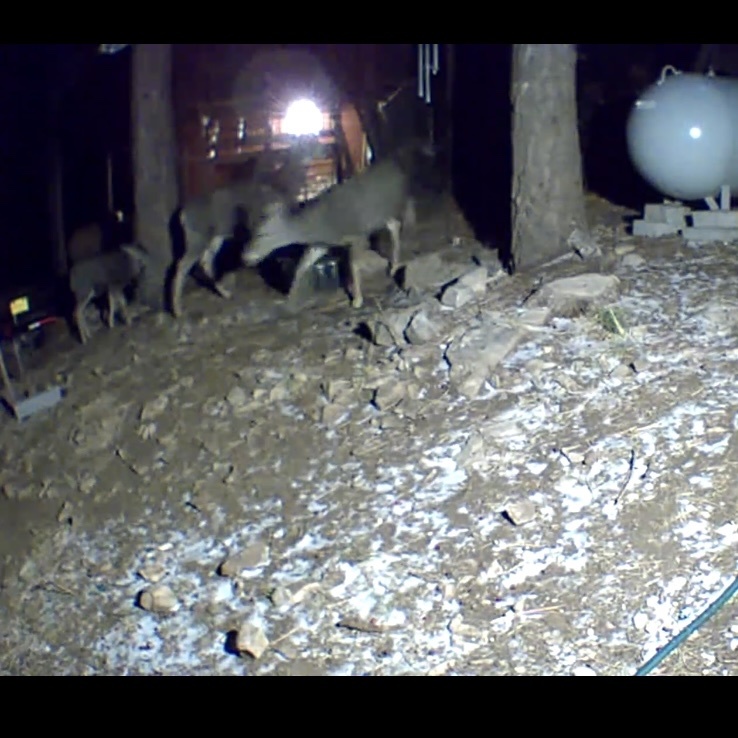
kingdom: Animalia
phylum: Chordata
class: Mammalia
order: Artiodactyla
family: Cervidae
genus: Odocoileus
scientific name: Odocoileus hemionus
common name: Mule deer
